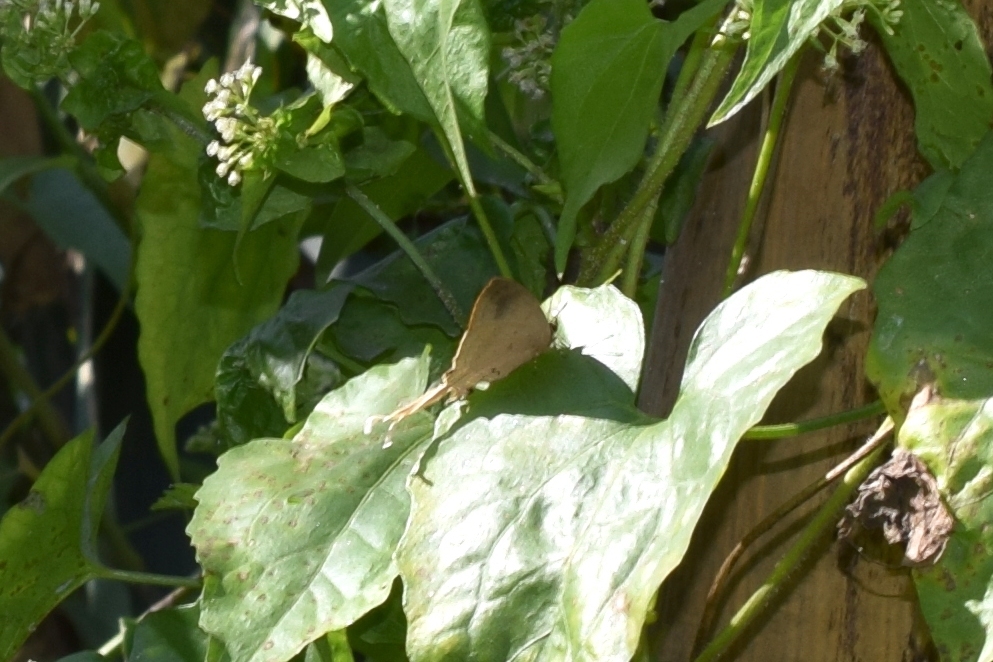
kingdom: Animalia
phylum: Arthropoda
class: Insecta
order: Lepidoptera
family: Lycaenidae
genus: Zeltus
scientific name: Zeltus amasa
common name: Fluffy tit
